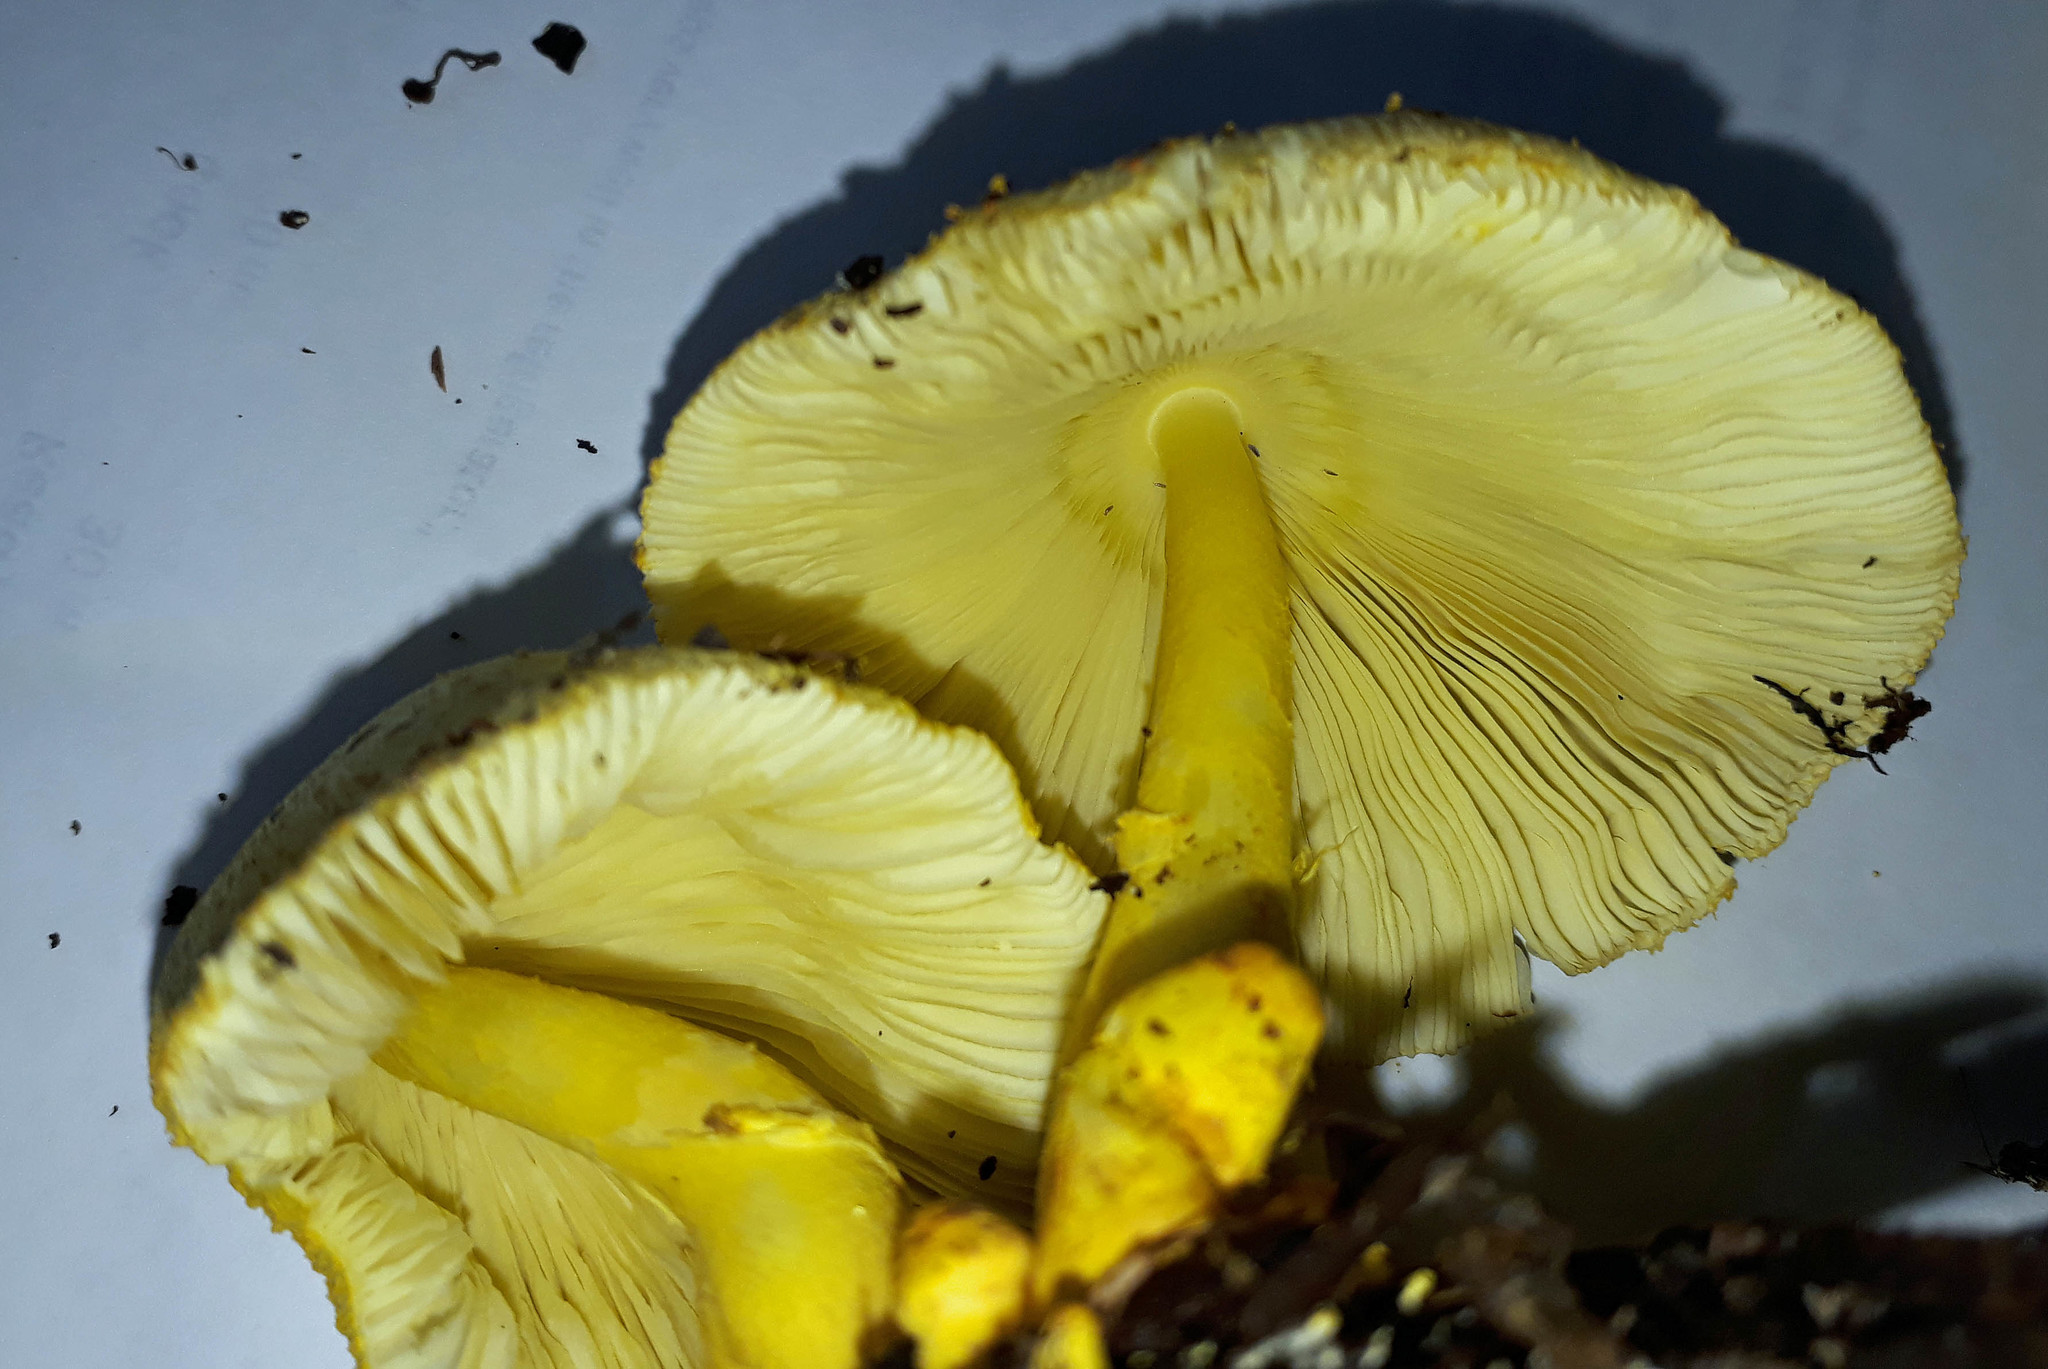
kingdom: Fungi
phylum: Basidiomycota
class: Agaricomycetes
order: Agaricales
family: Agaricaceae
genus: Leucocoprinus
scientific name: Leucocoprinus birnbaumii
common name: Plantpot dapperling
